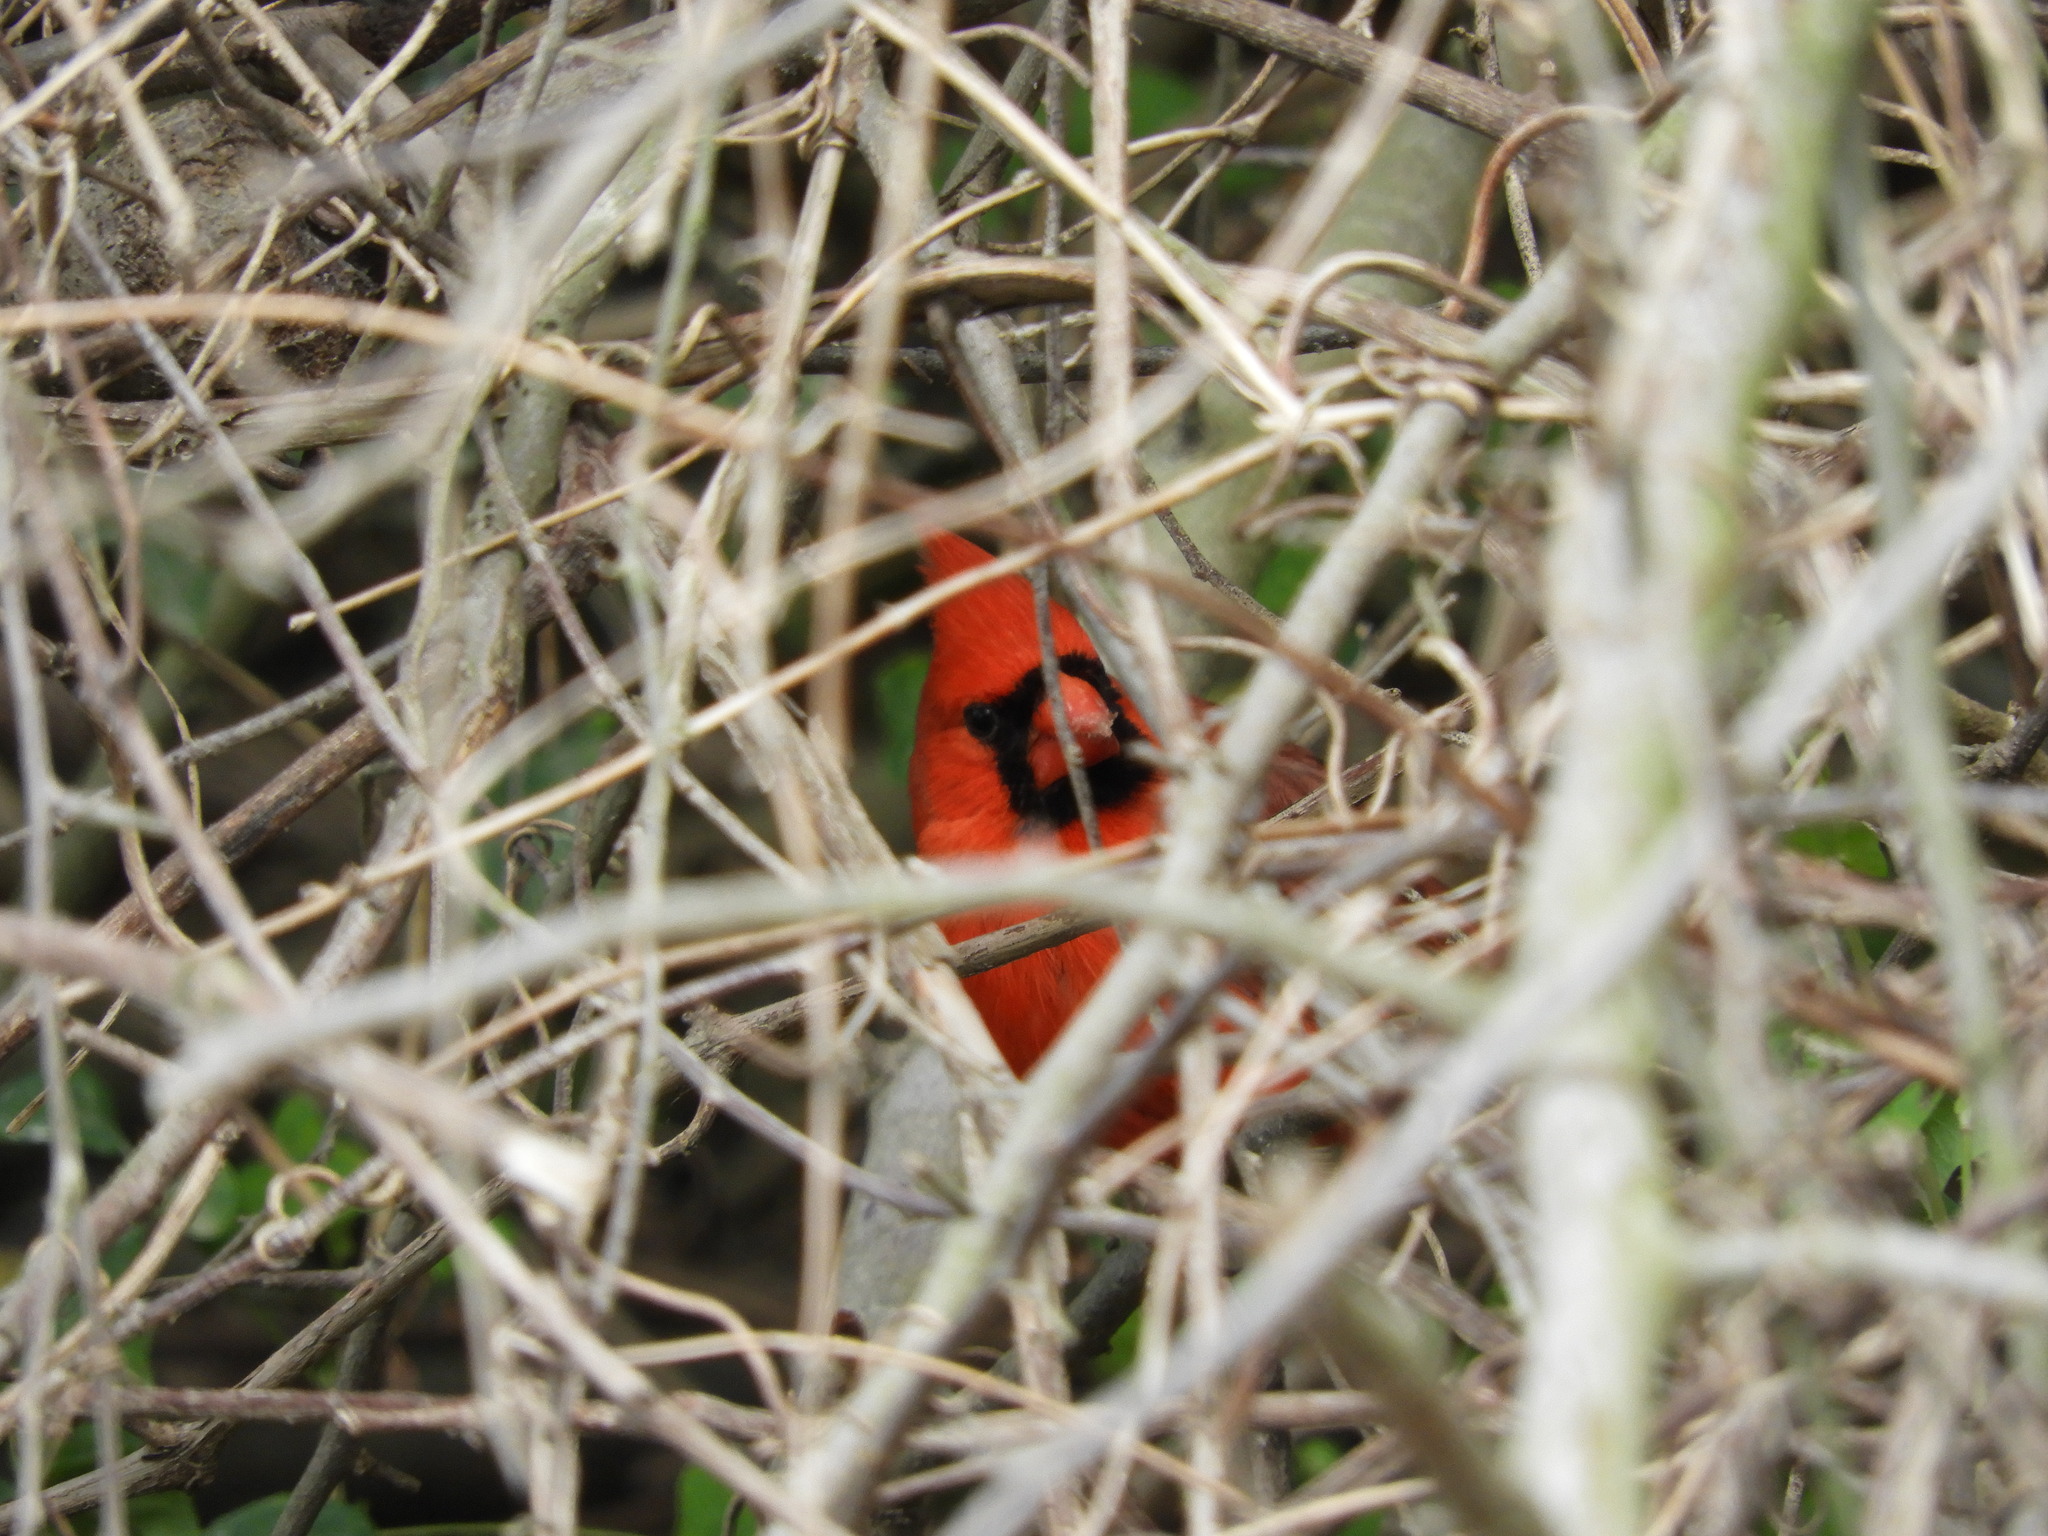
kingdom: Animalia
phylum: Chordata
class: Aves
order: Passeriformes
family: Cardinalidae
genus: Cardinalis
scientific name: Cardinalis cardinalis
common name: Northern cardinal
